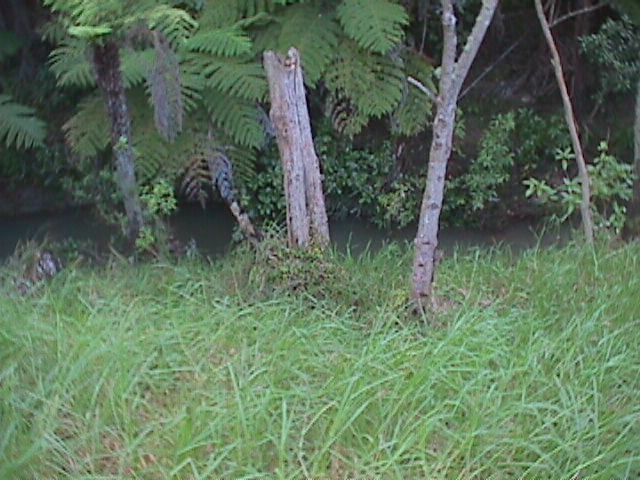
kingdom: Plantae
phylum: Tracheophyta
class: Liliopsida
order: Poales
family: Poaceae
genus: Cenchrus
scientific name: Cenchrus clandestinus
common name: Kikuyugrass
